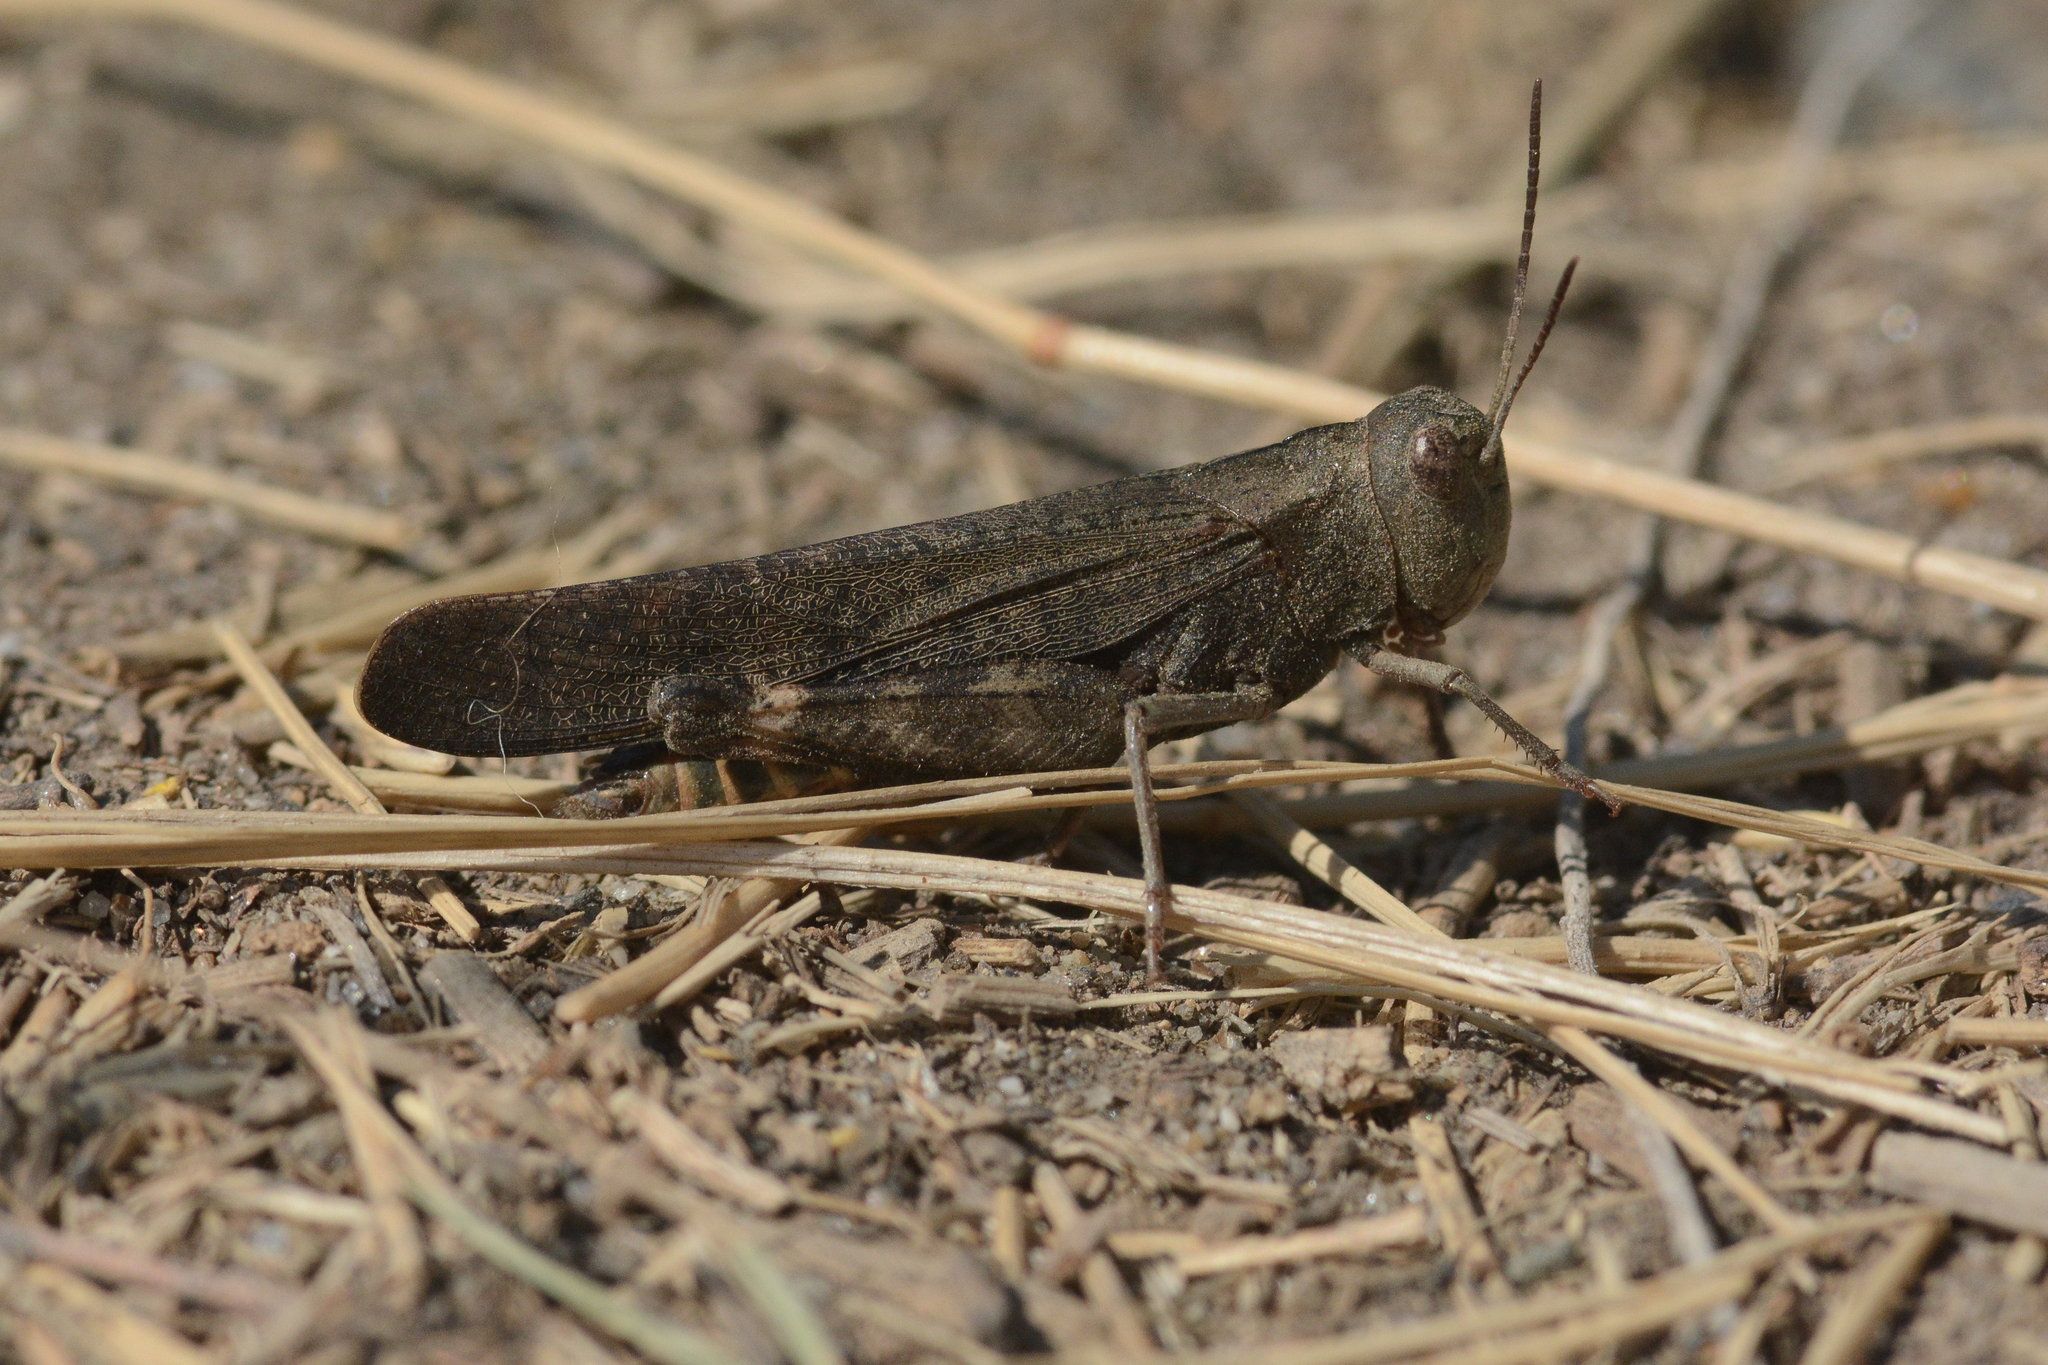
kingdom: Animalia
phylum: Arthropoda
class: Insecta
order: Orthoptera
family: Acrididae
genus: Arphia
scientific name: Arphia pseudo-nietana
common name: Red-winged grasshopper
